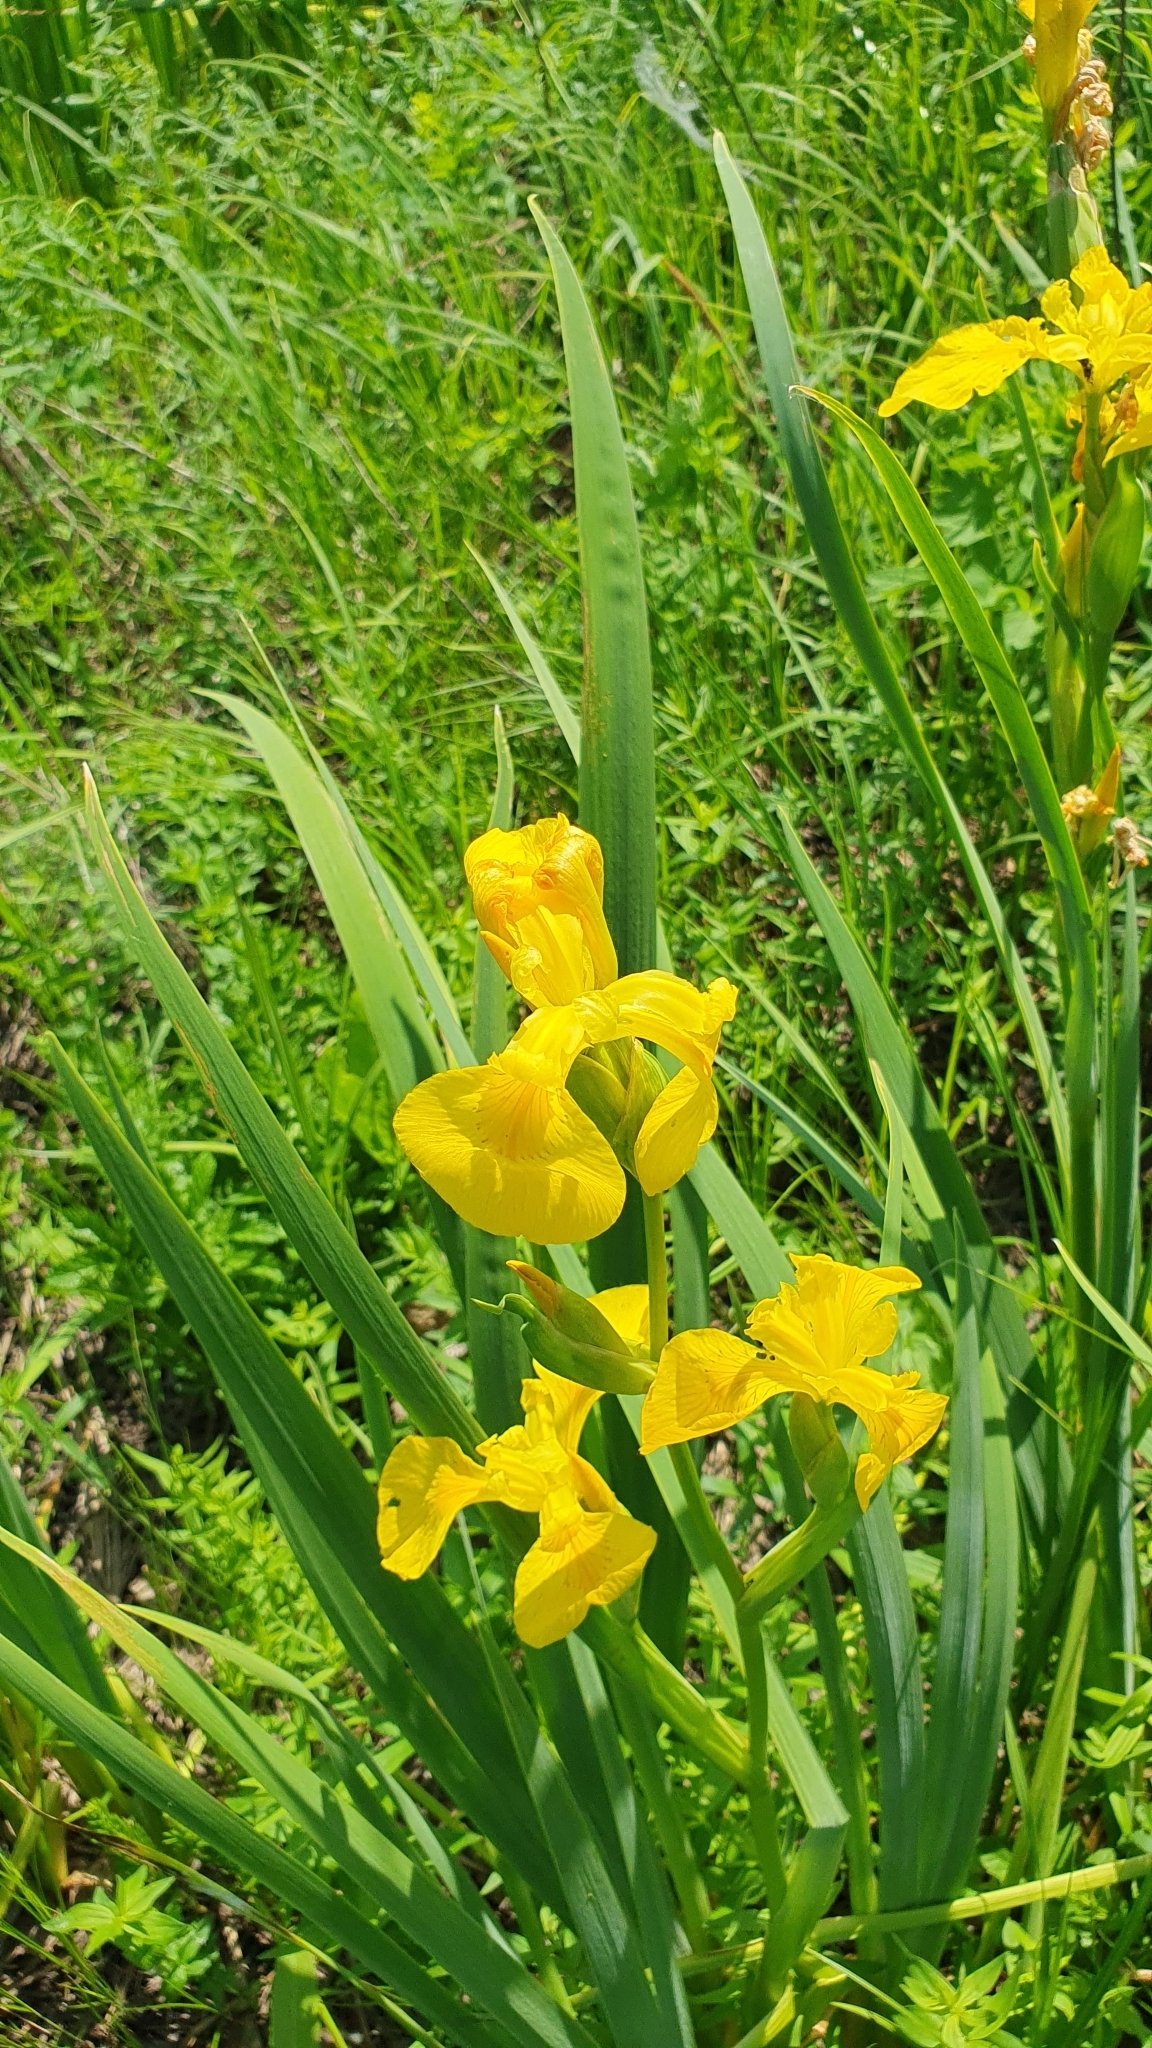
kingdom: Plantae
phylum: Tracheophyta
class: Liliopsida
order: Asparagales
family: Iridaceae
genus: Iris
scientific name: Iris pseudacorus
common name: Yellow flag
